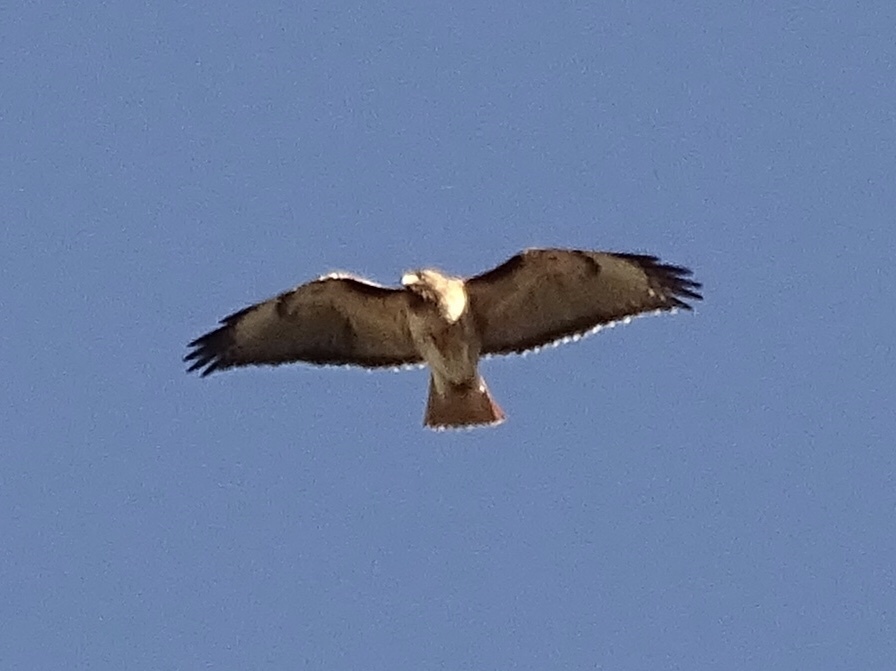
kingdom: Animalia
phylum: Chordata
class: Aves
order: Accipitriformes
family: Accipitridae
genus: Buteo
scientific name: Buteo jamaicensis
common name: Red-tailed hawk
